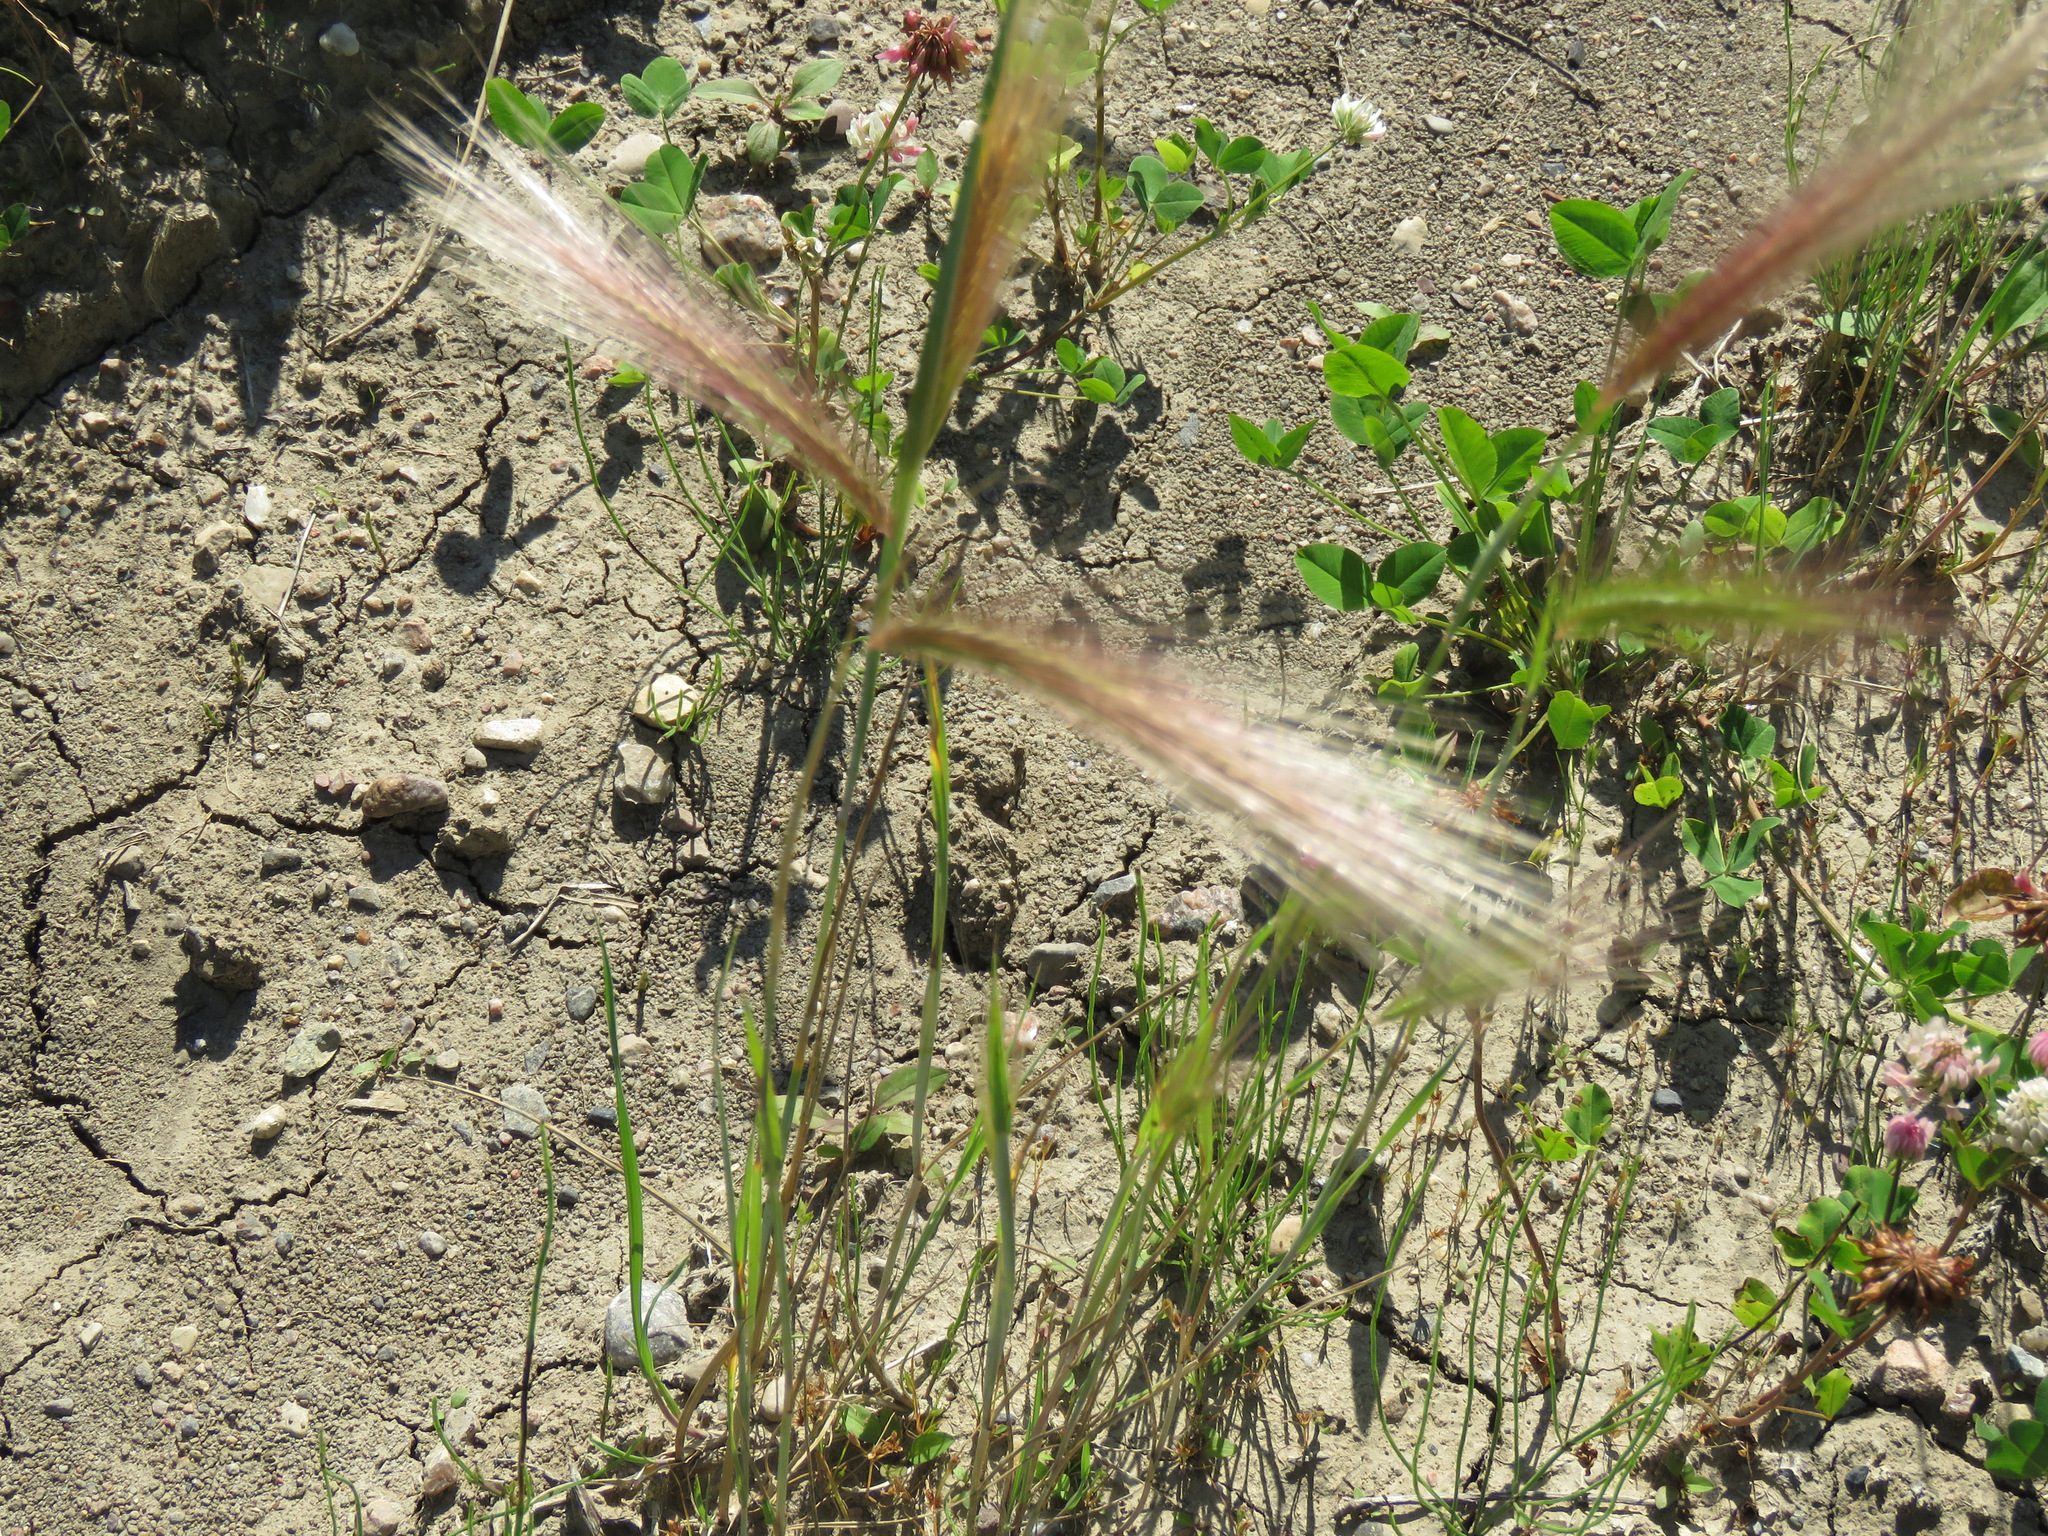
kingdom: Plantae
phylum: Tracheophyta
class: Liliopsida
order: Poales
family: Poaceae
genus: Hordeum
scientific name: Hordeum jubatum
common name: Foxtail barley
